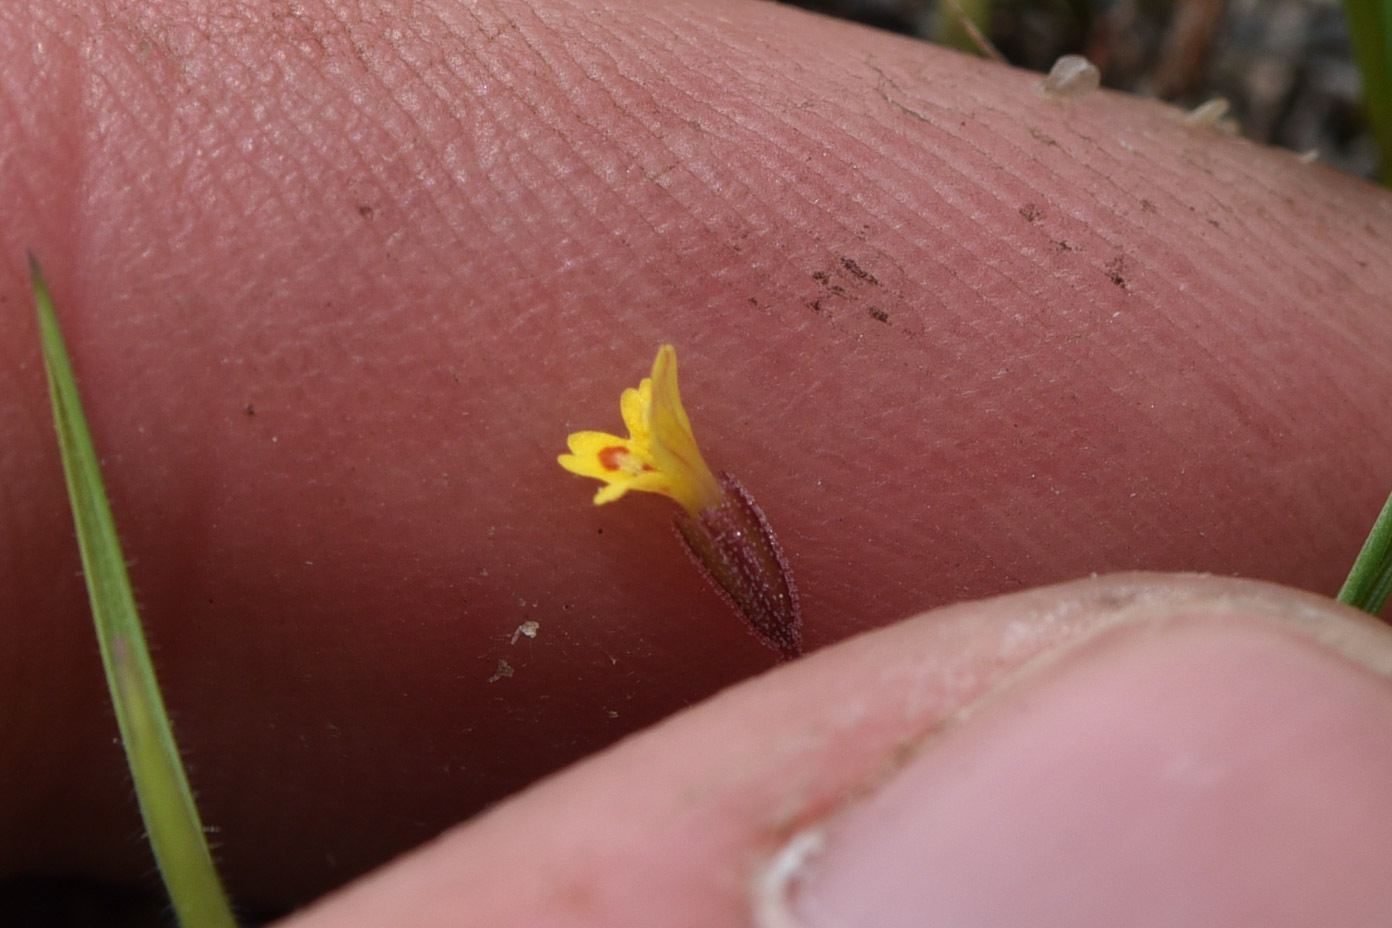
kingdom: Plantae
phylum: Tracheophyta
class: Magnoliopsida
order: Lamiales
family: Phrymaceae
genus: Erythranthe
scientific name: Erythranthe suksdorfii
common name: Suksdorf's monkeyflower
